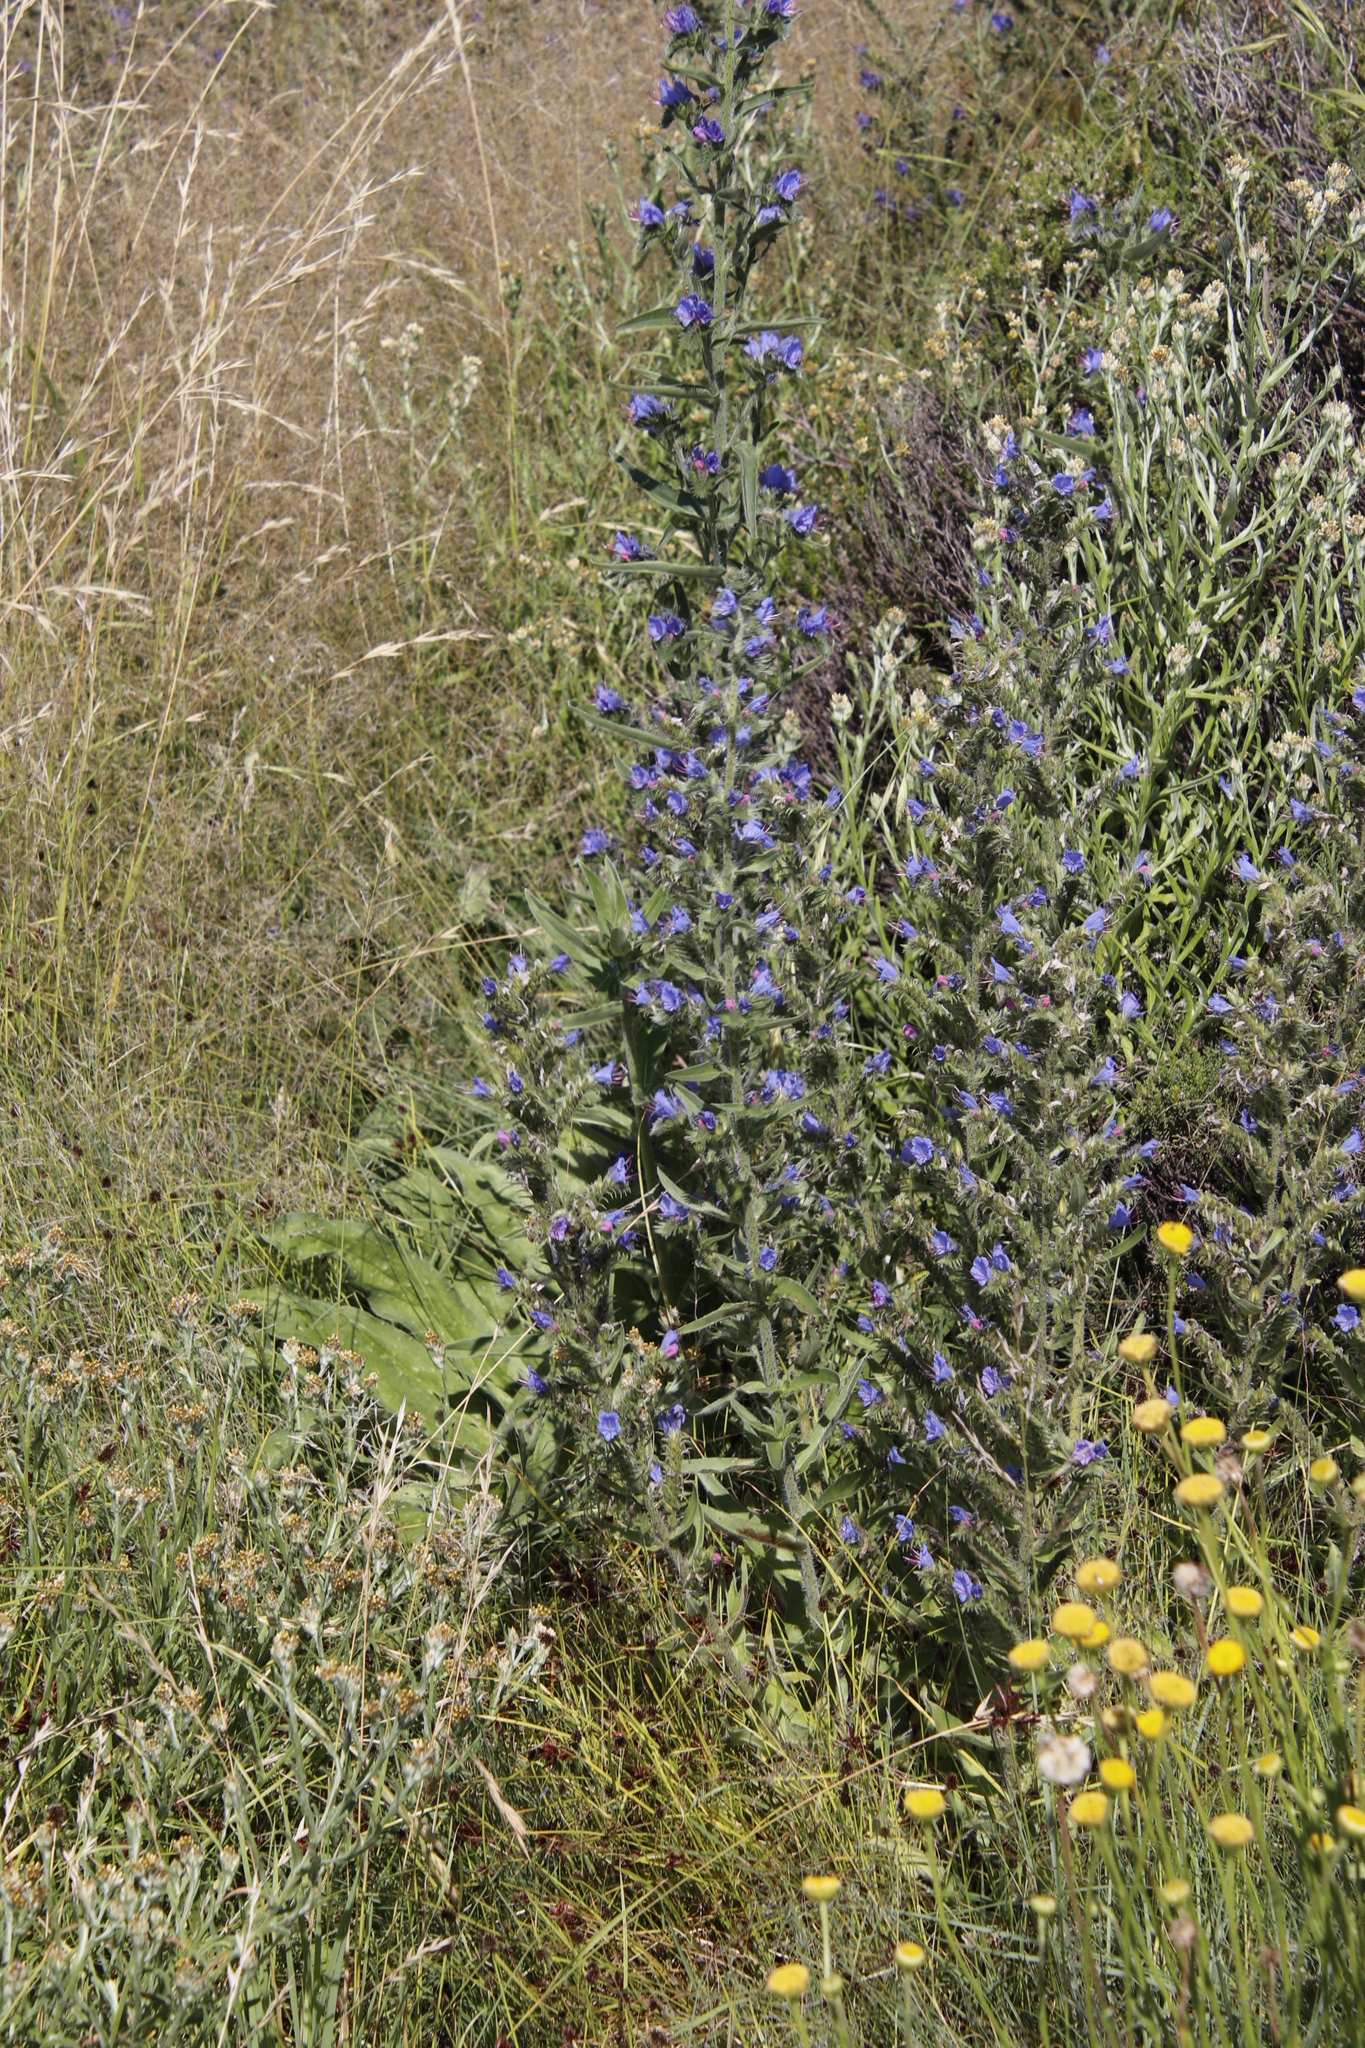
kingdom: Plantae
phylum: Tracheophyta
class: Magnoliopsida
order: Boraginales
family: Boraginaceae
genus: Echium
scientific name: Echium vulgare
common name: Common viper's bugloss
